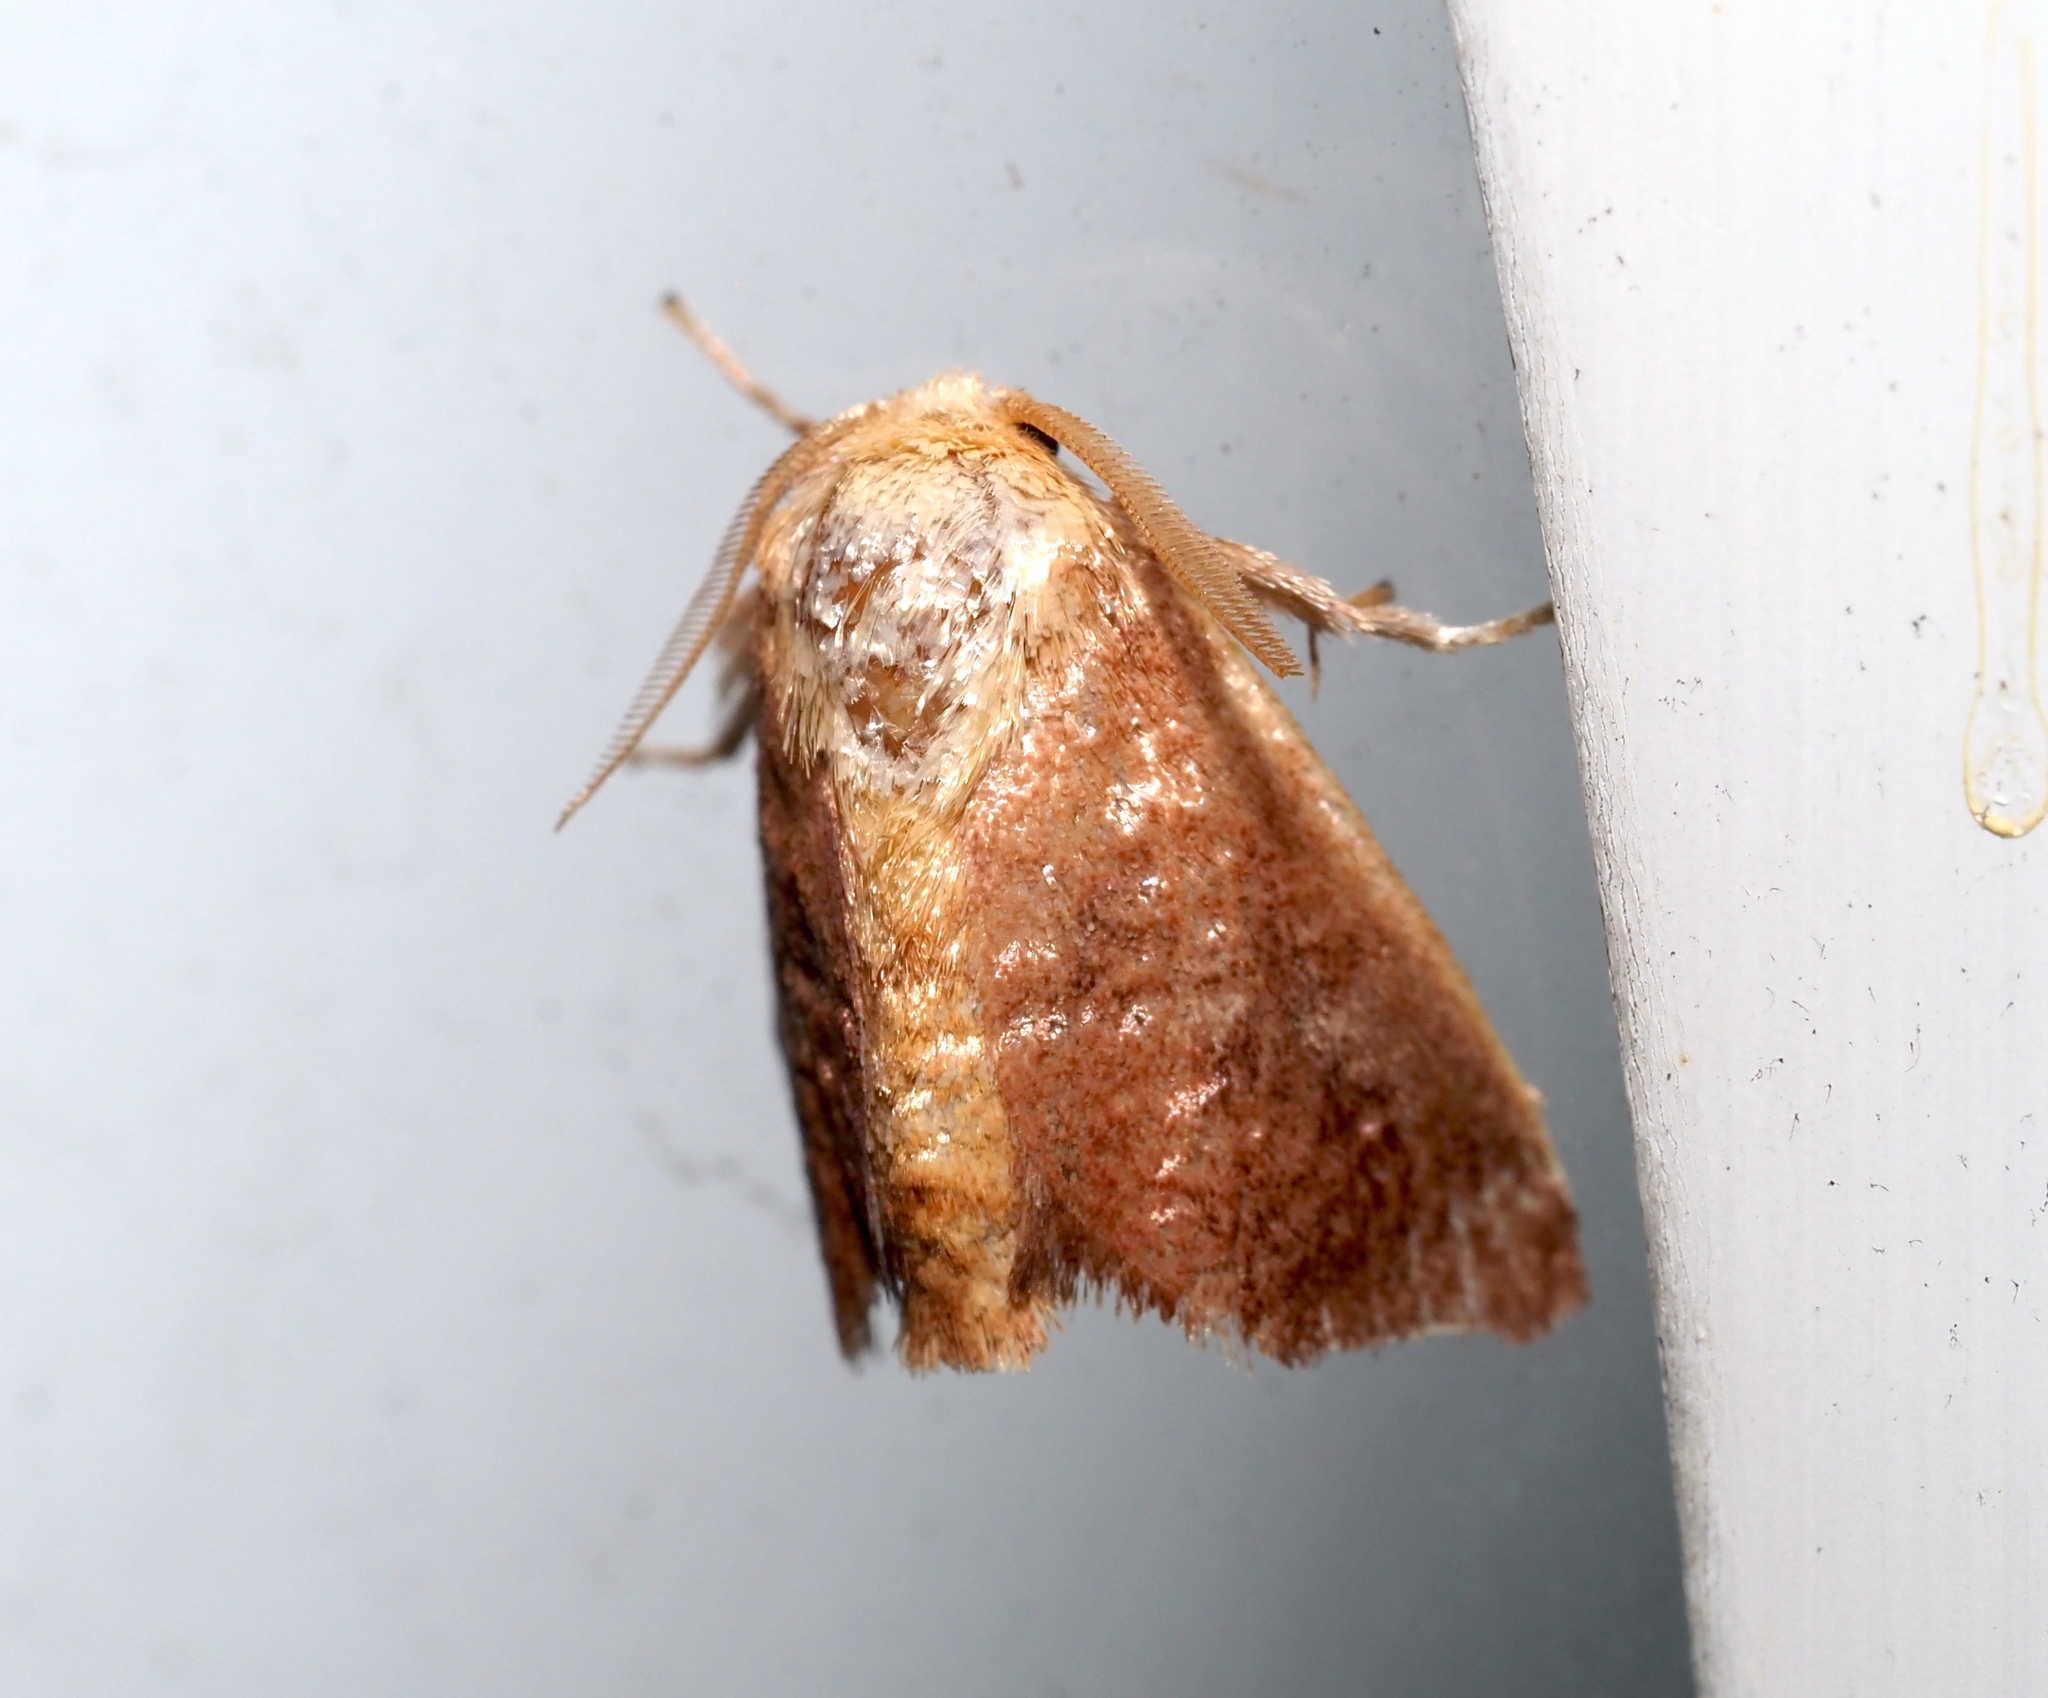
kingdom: Animalia
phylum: Arthropoda
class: Insecta
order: Lepidoptera
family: Limacodidae
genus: Isa
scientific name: Isa textula
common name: Crowned slug moth
